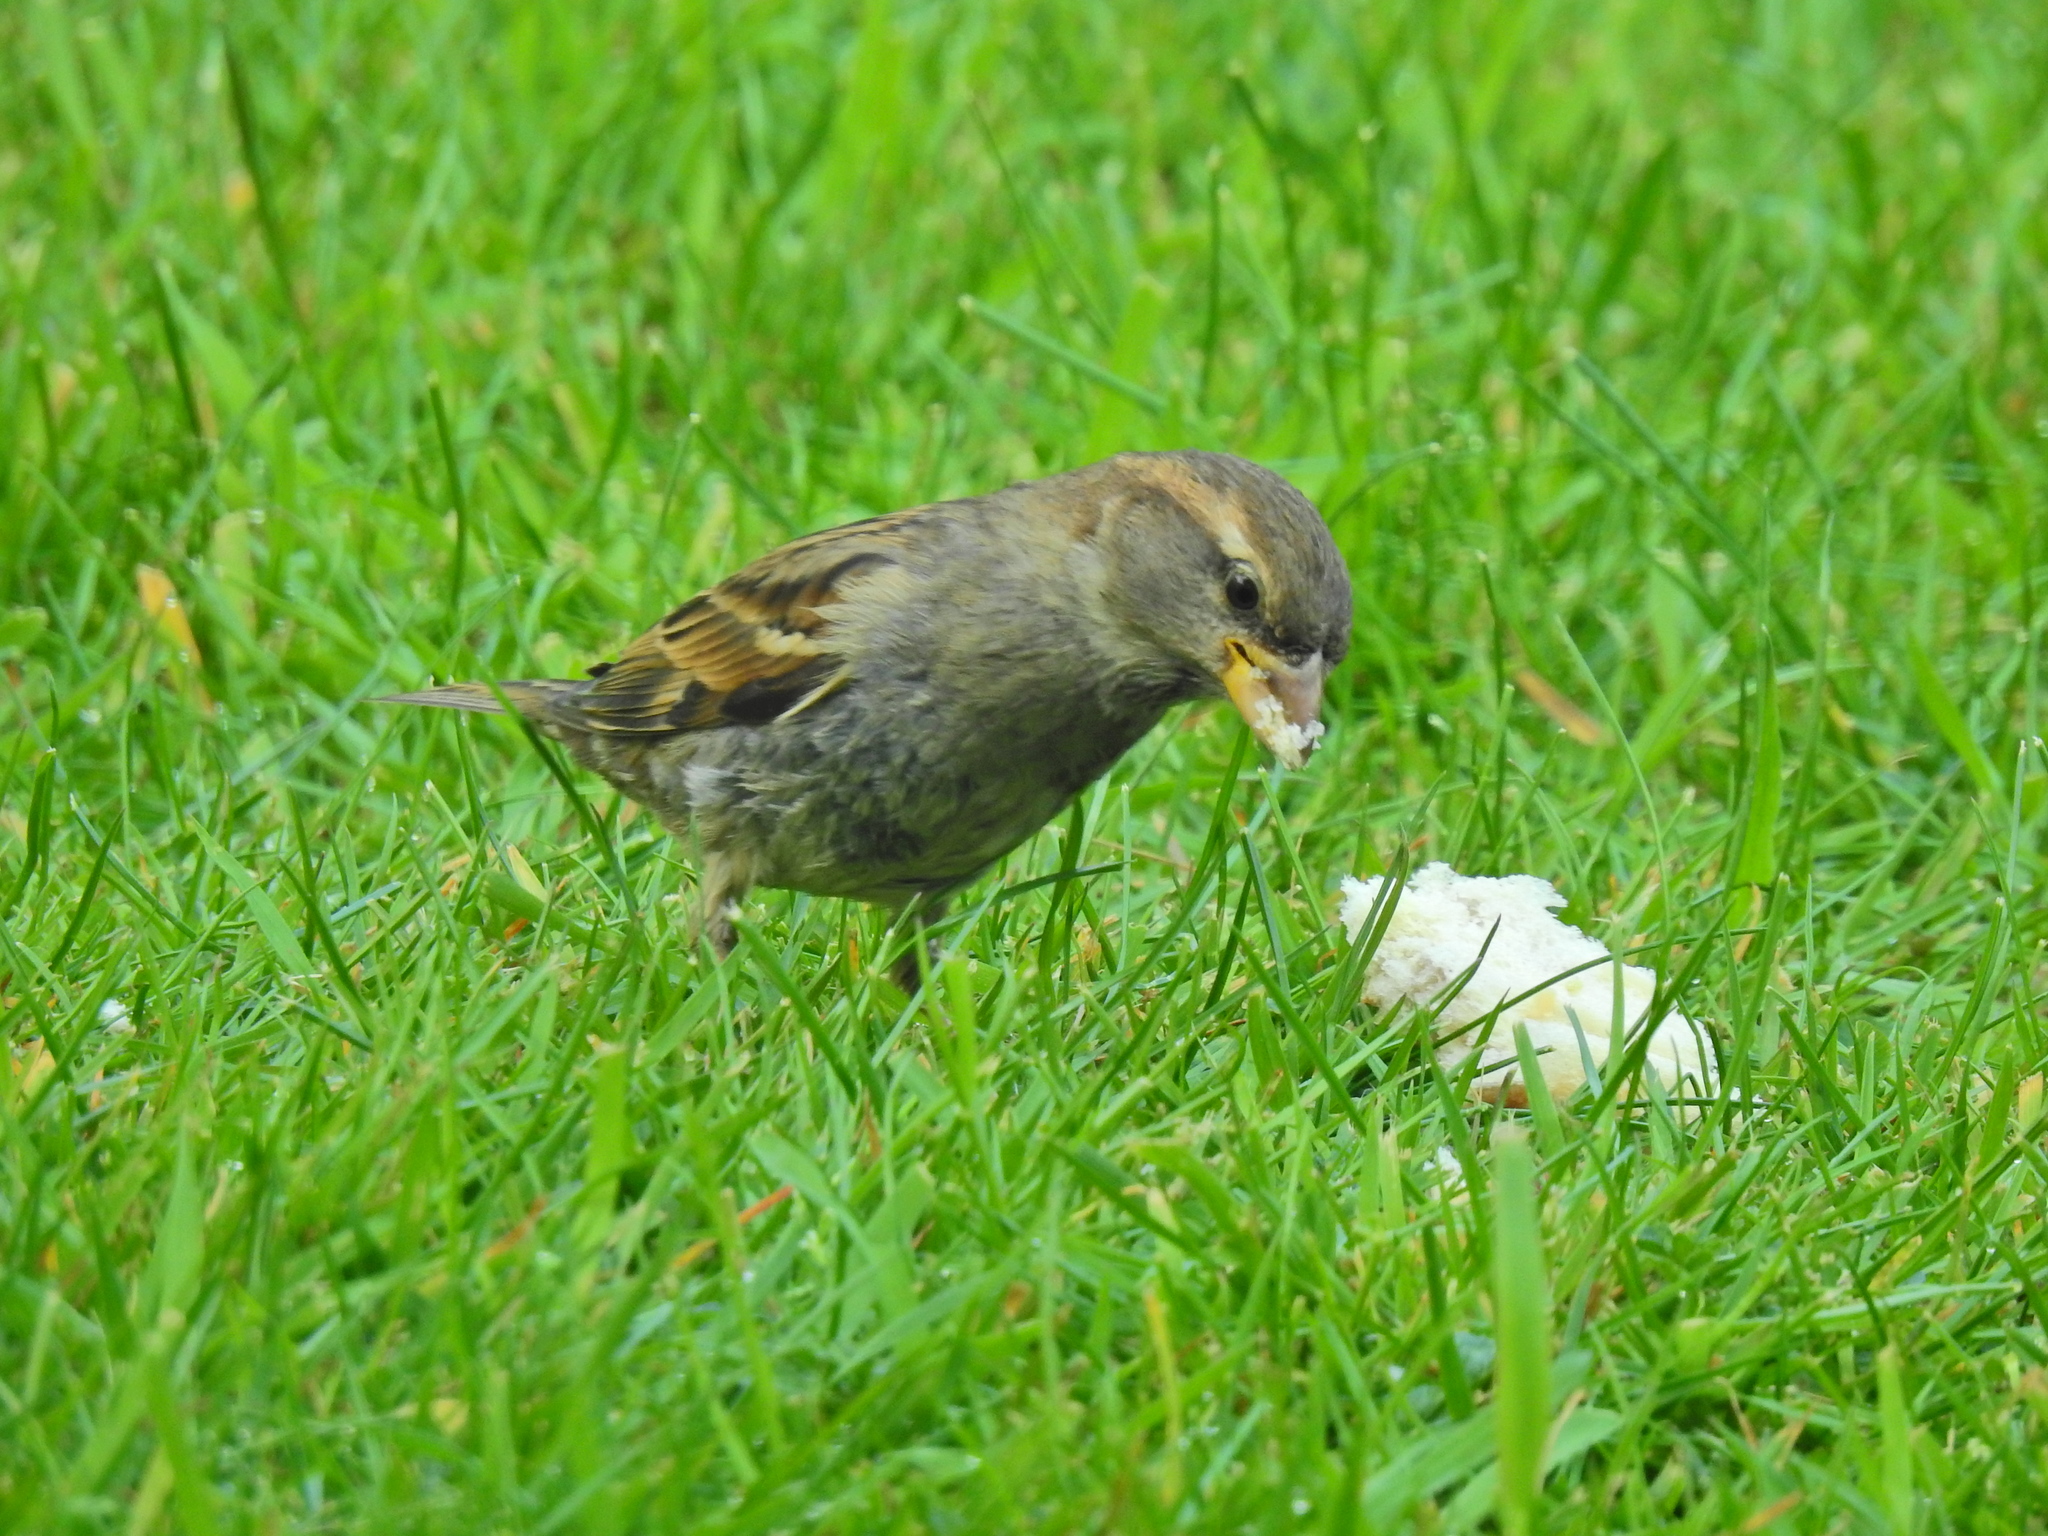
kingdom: Animalia
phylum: Chordata
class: Aves
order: Passeriformes
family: Passeridae
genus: Passer
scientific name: Passer domesticus
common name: House sparrow
